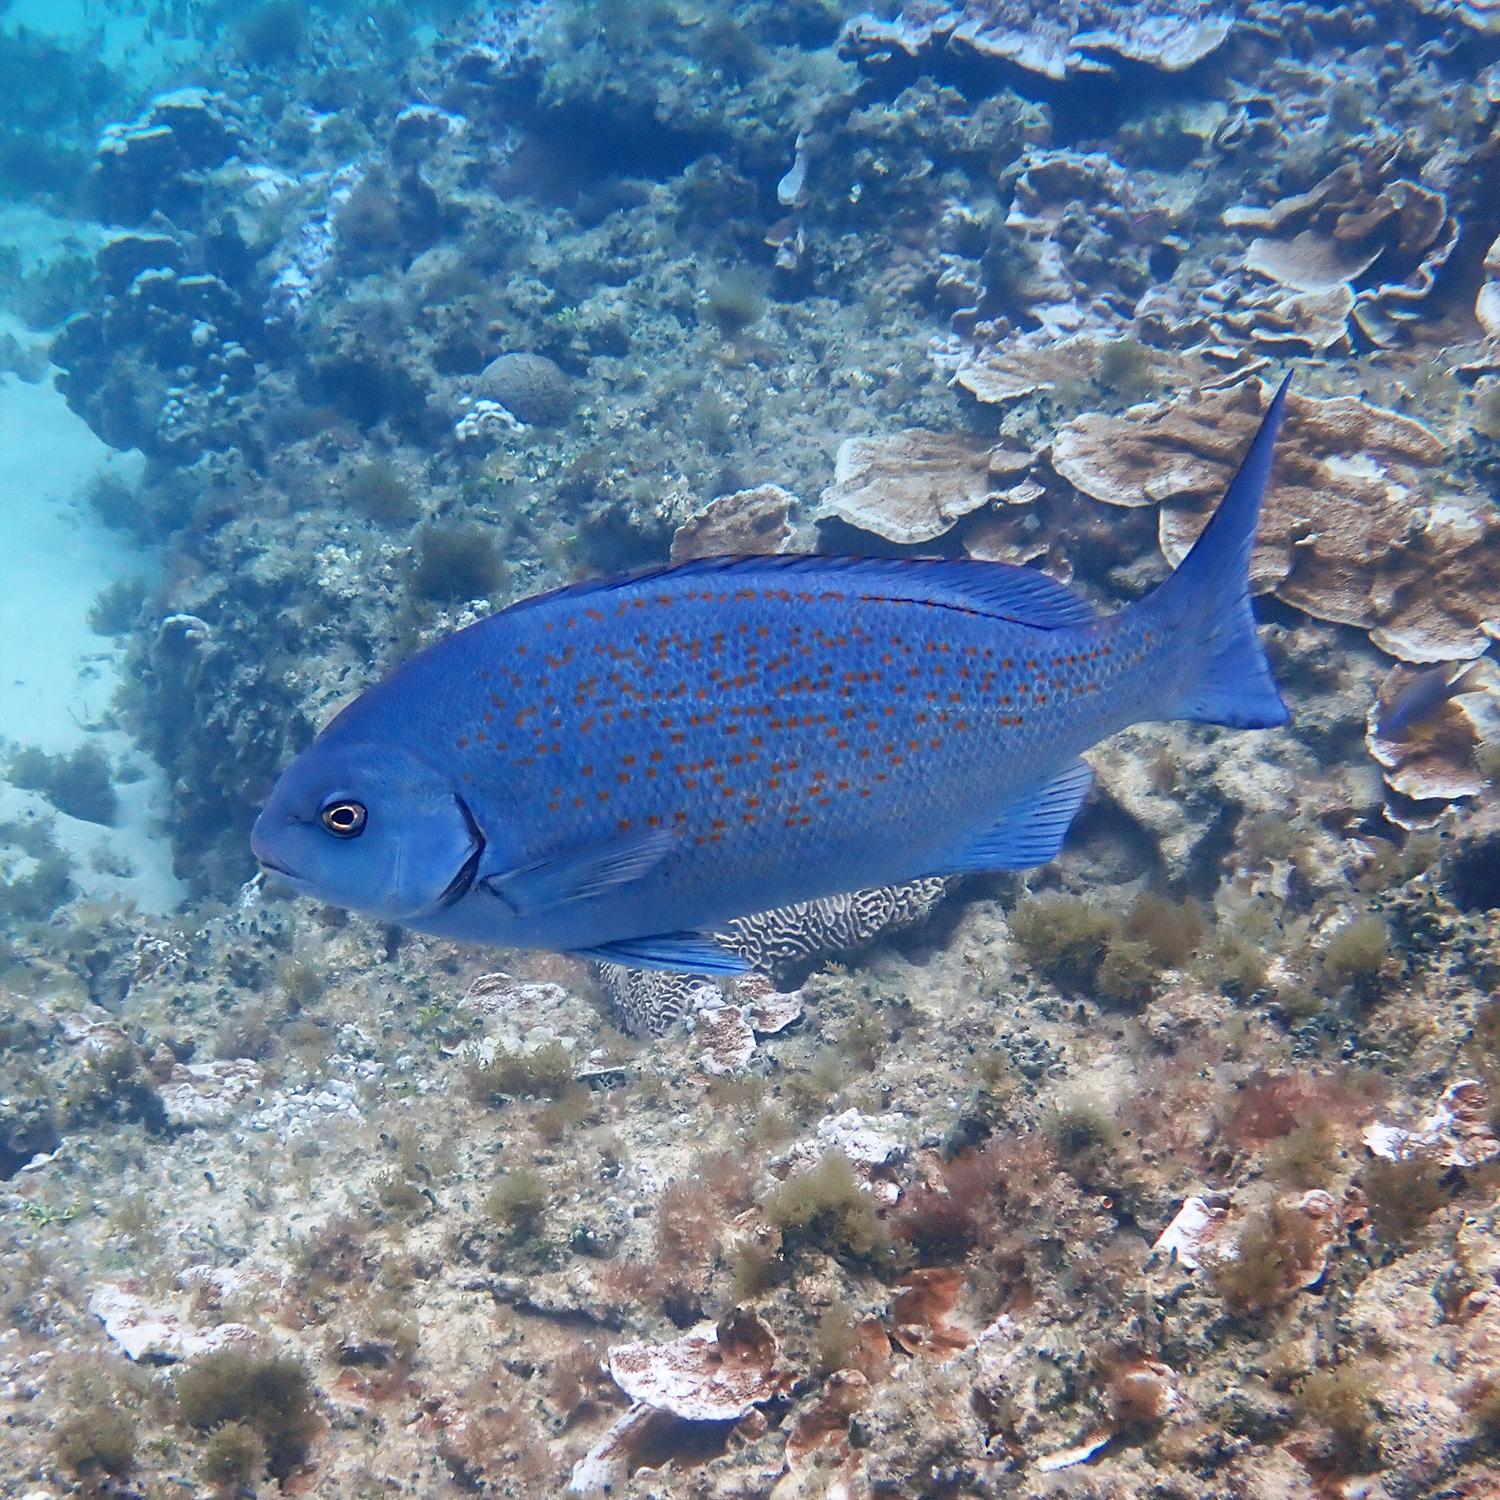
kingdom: Animalia
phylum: Chordata
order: Perciformes
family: Kyphosidae
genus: Girella
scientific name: Girella cyanea
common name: Bluefish
